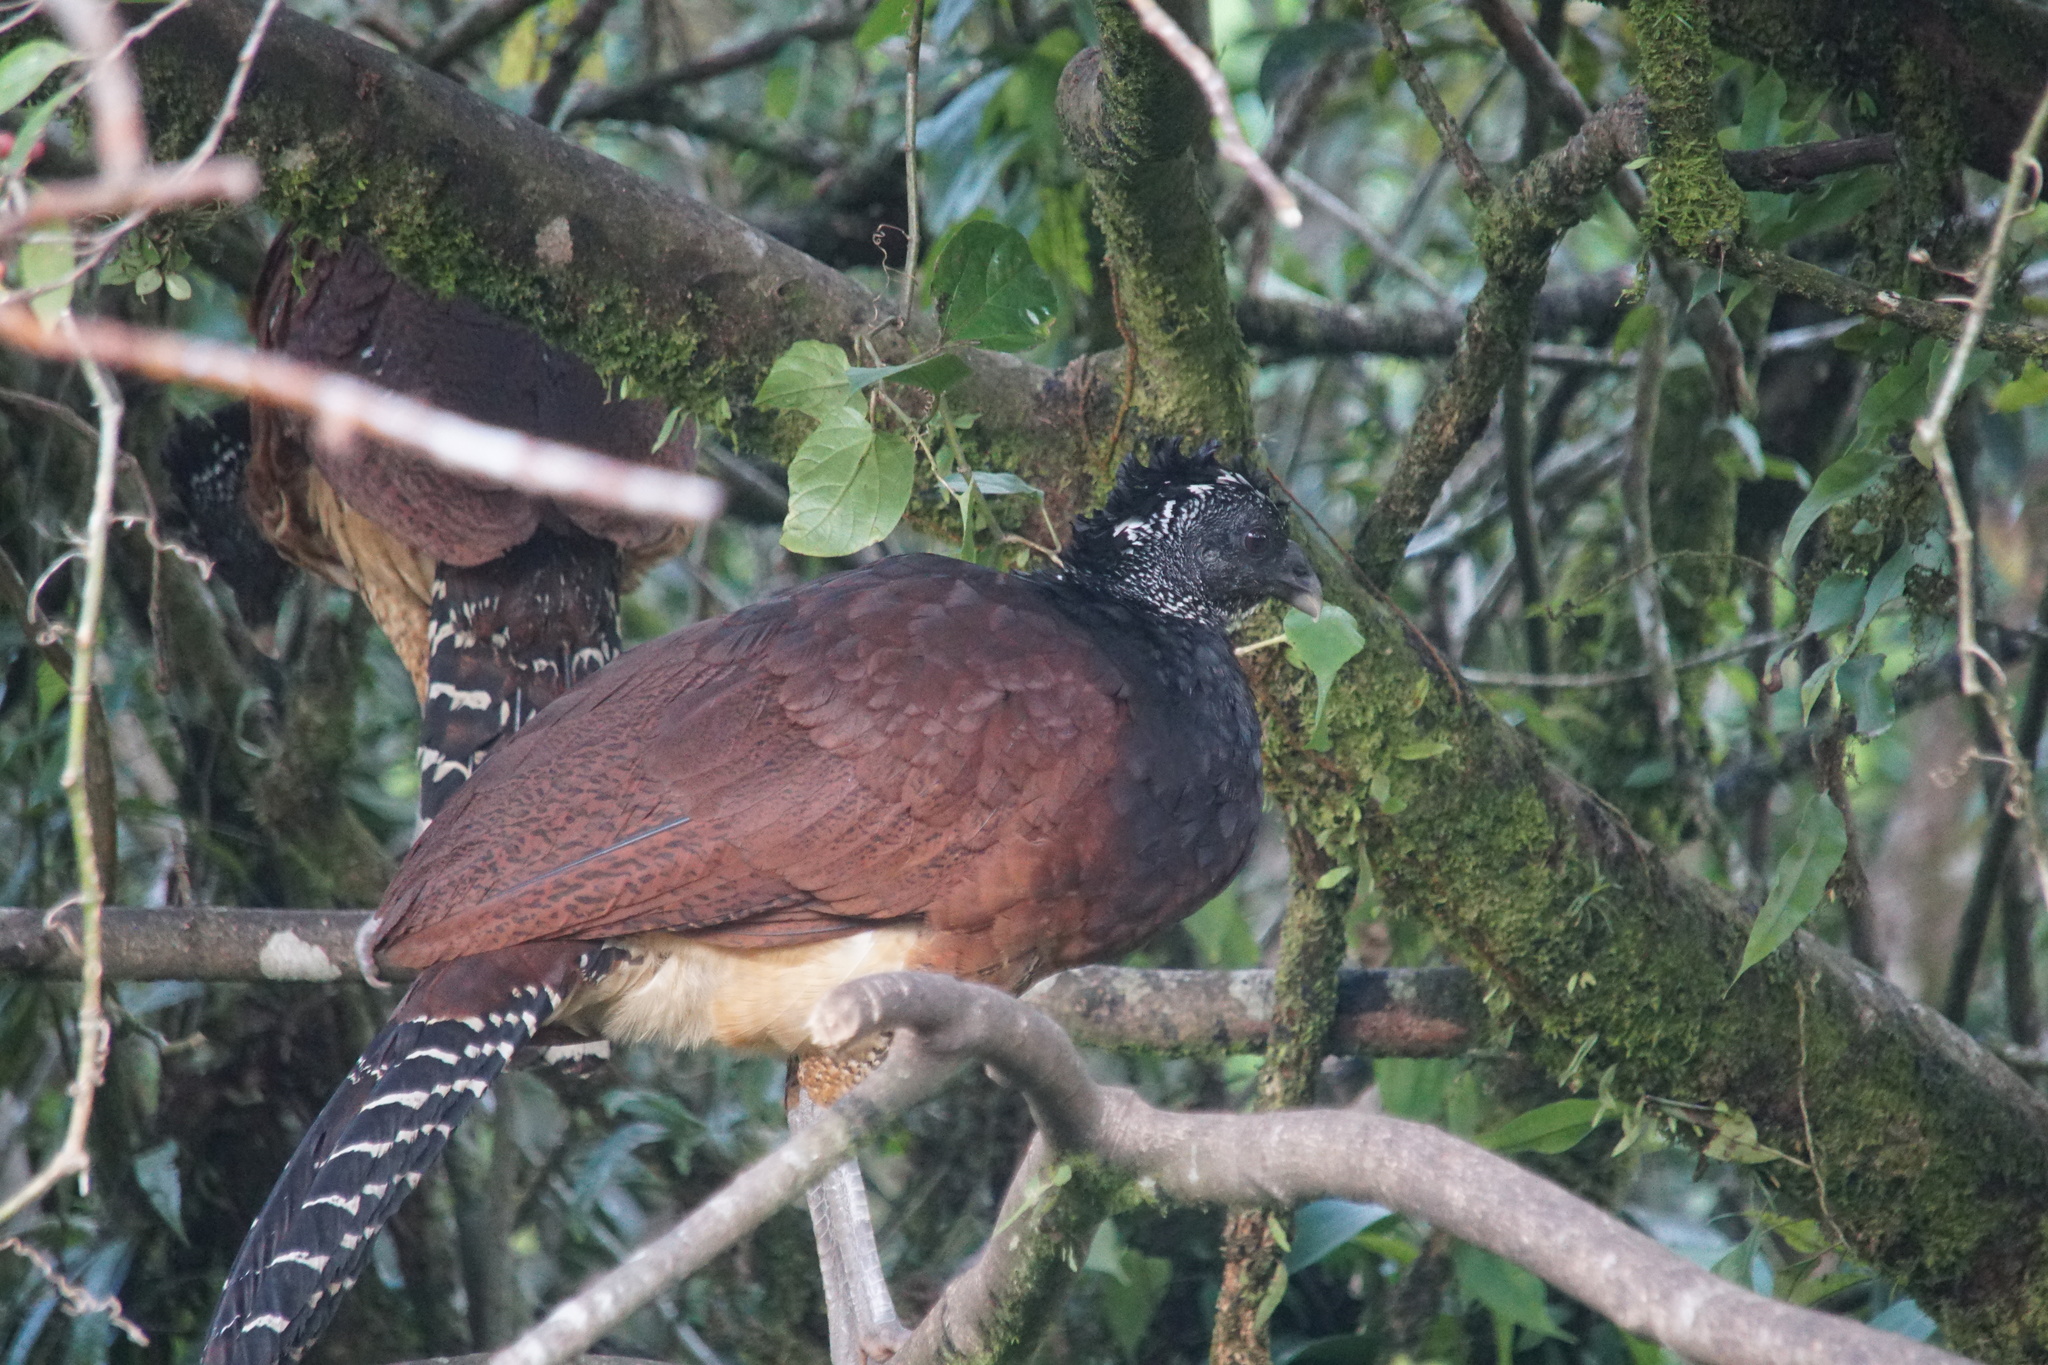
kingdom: Animalia
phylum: Chordata
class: Aves
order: Galliformes
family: Cracidae
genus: Crax
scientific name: Crax rubra
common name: Great curassow
